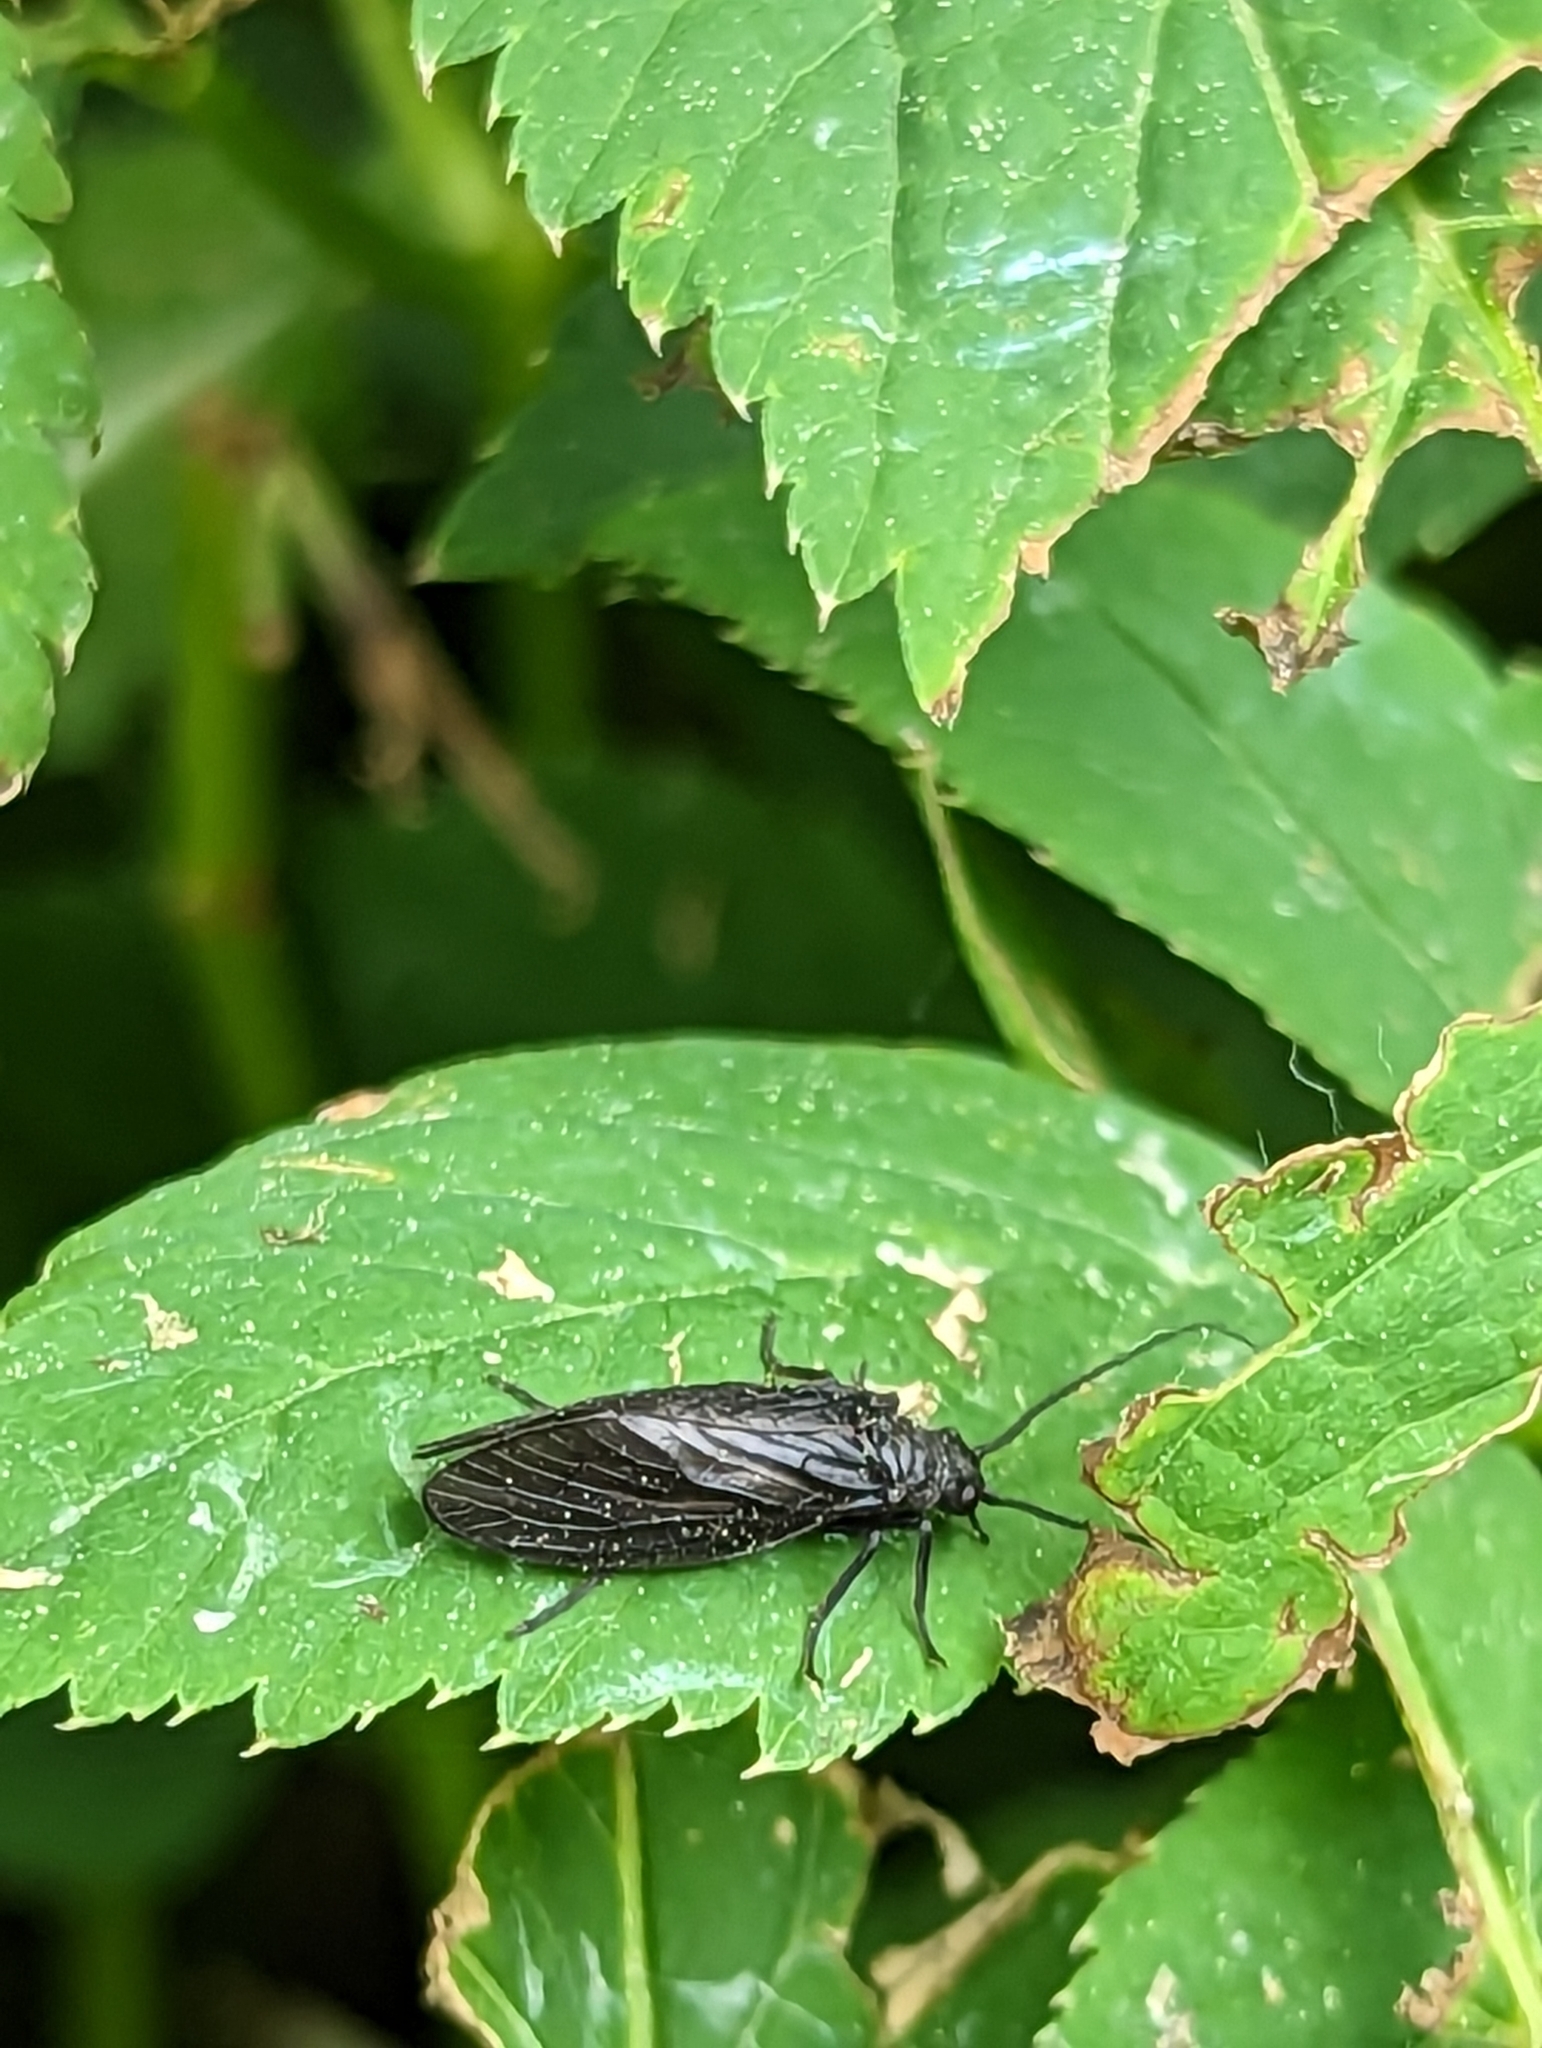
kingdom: Animalia
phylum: Arthropoda
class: Insecta
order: Megaloptera
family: Sialidae
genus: Sialis
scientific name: Sialis
